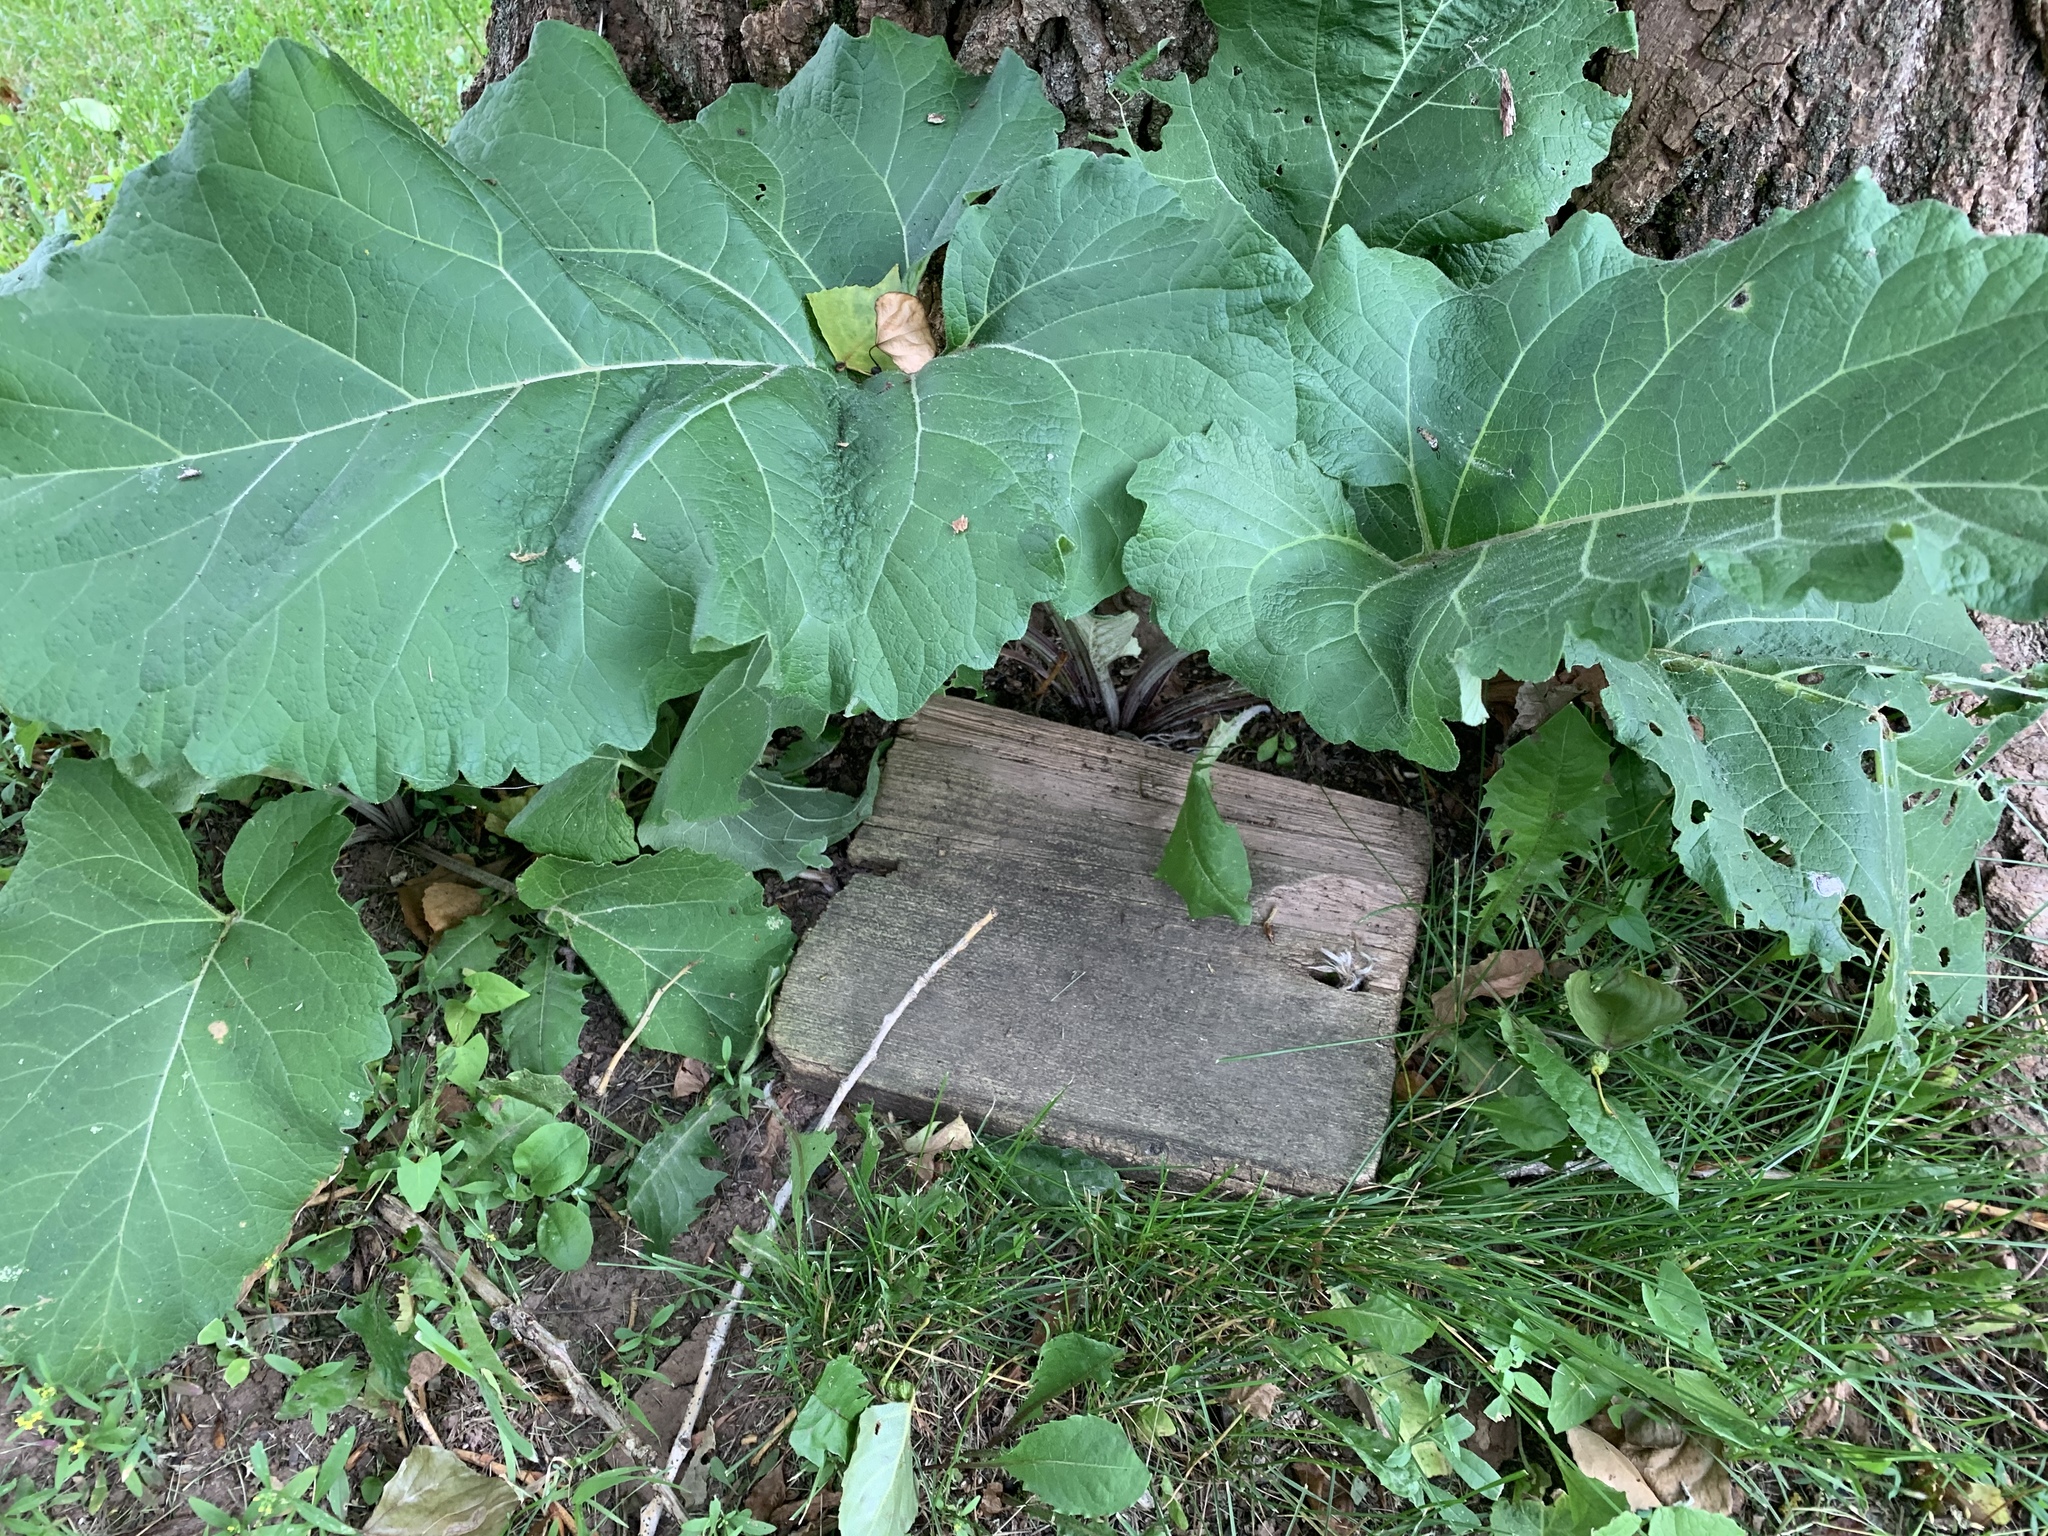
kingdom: Plantae
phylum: Tracheophyta
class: Magnoliopsida
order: Asterales
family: Asteraceae
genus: Arctium
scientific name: Arctium
